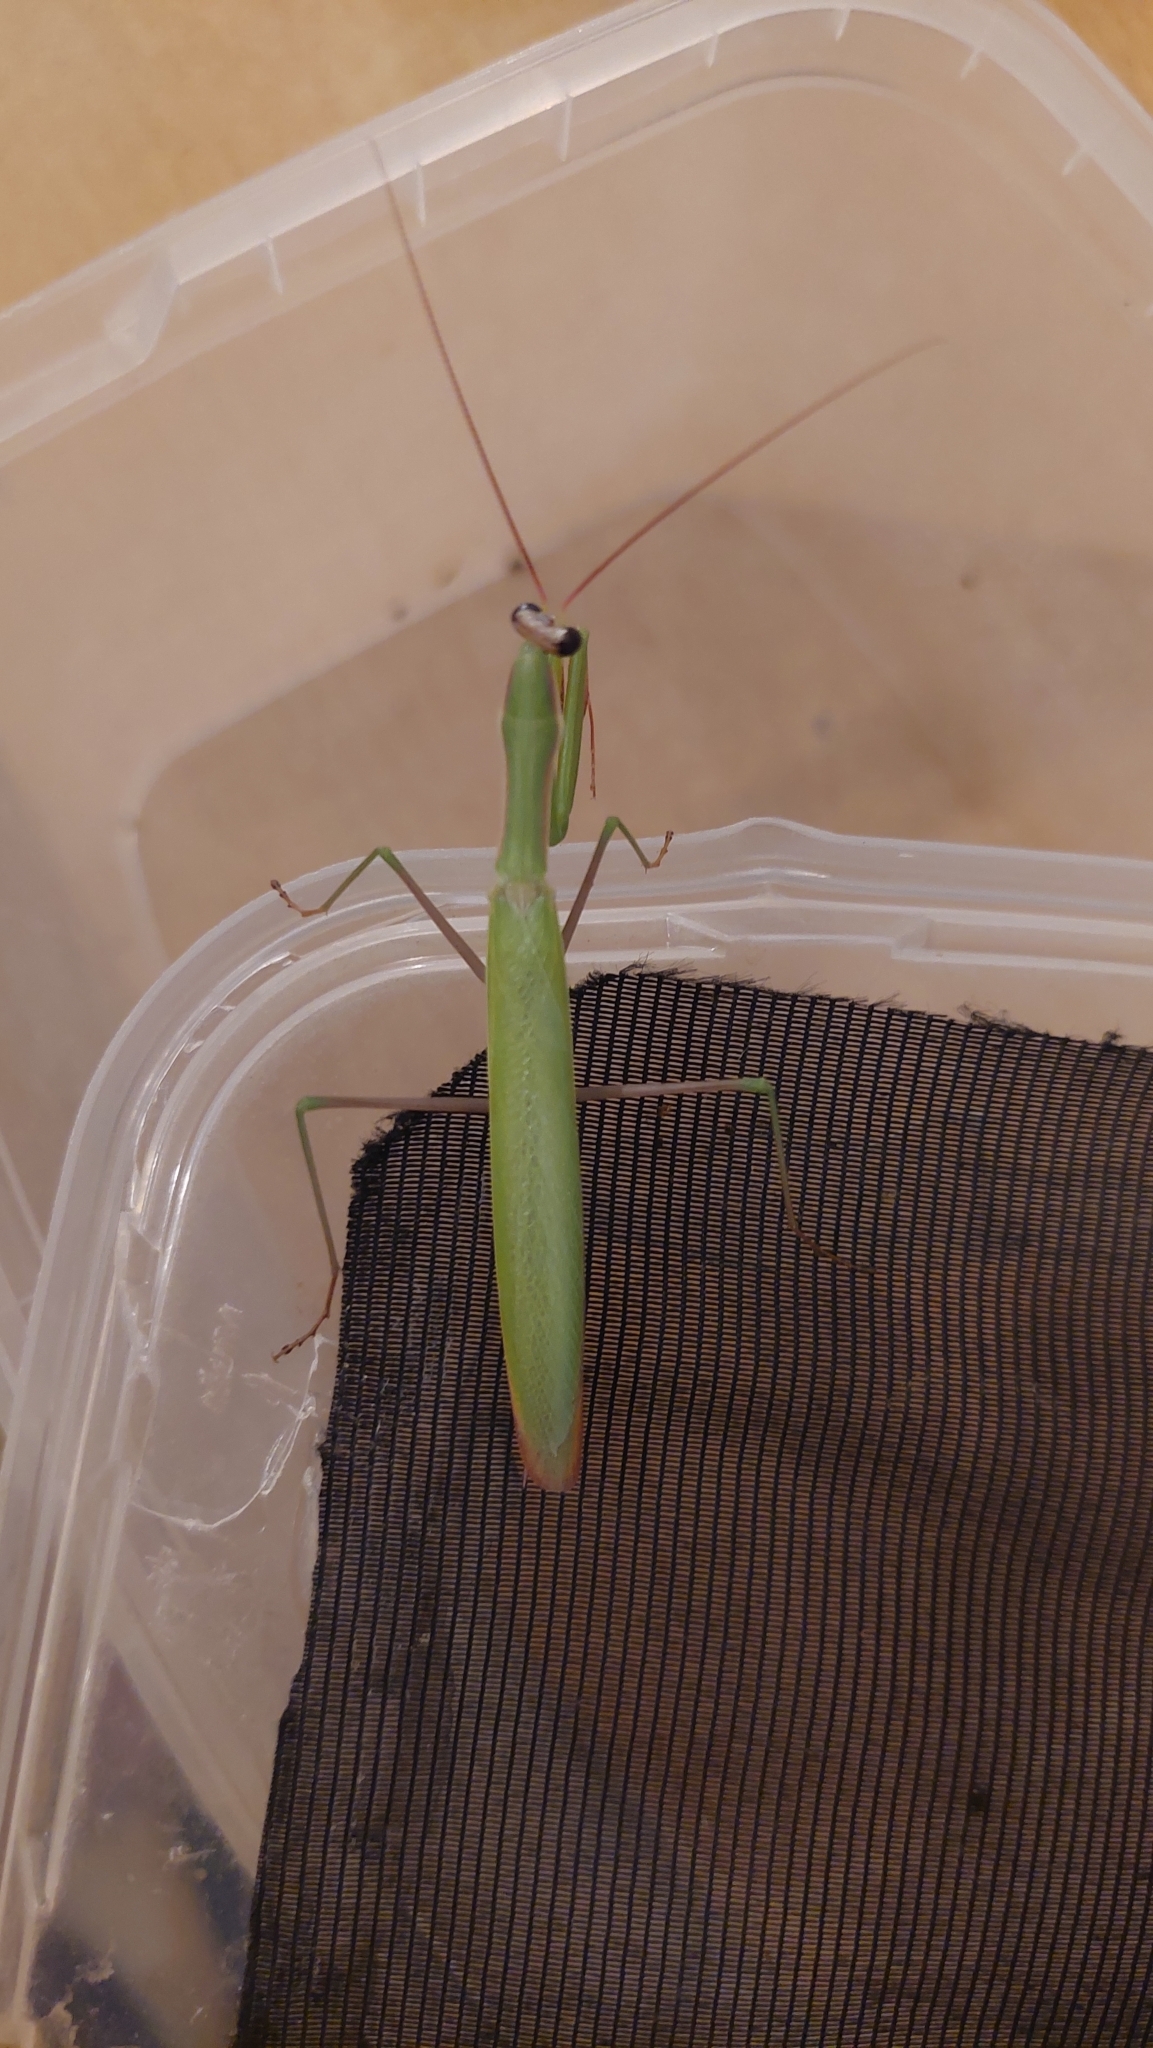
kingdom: Animalia
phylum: Arthropoda
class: Insecta
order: Mantodea
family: Mantidae
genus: Mantis
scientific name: Mantis religiosa
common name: Praying mantis
